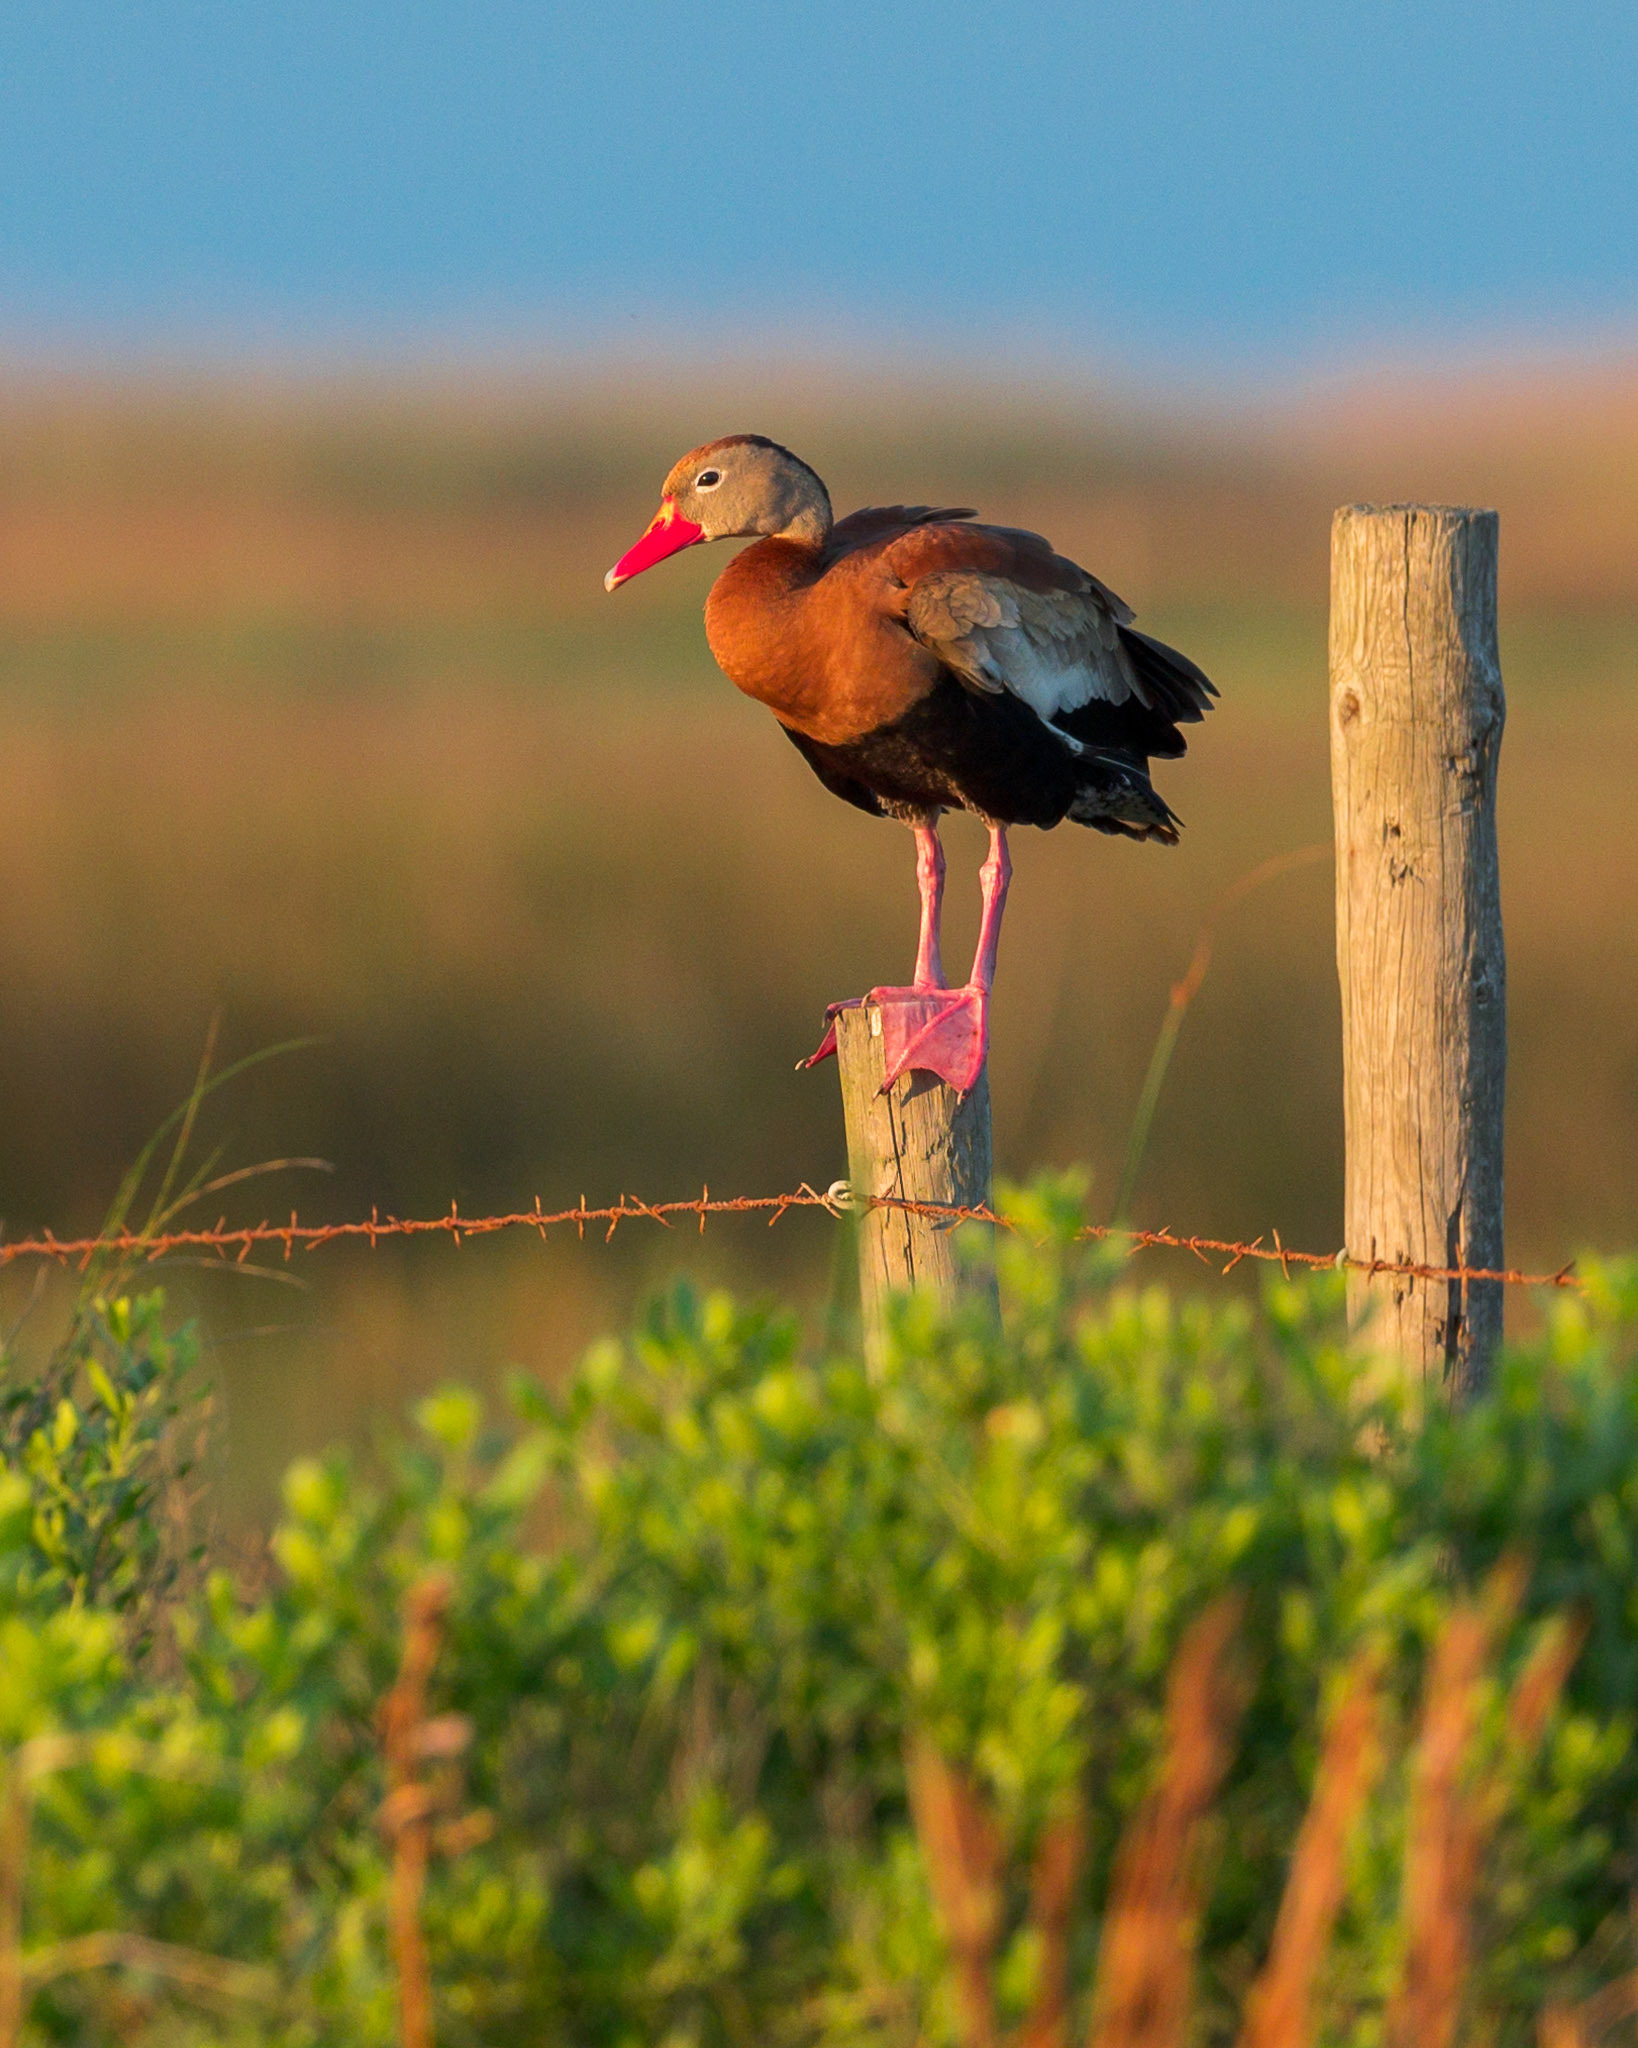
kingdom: Animalia
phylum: Chordata
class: Aves
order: Anseriformes
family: Anatidae
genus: Dendrocygna
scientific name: Dendrocygna autumnalis
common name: Black-bellied whistling duck
